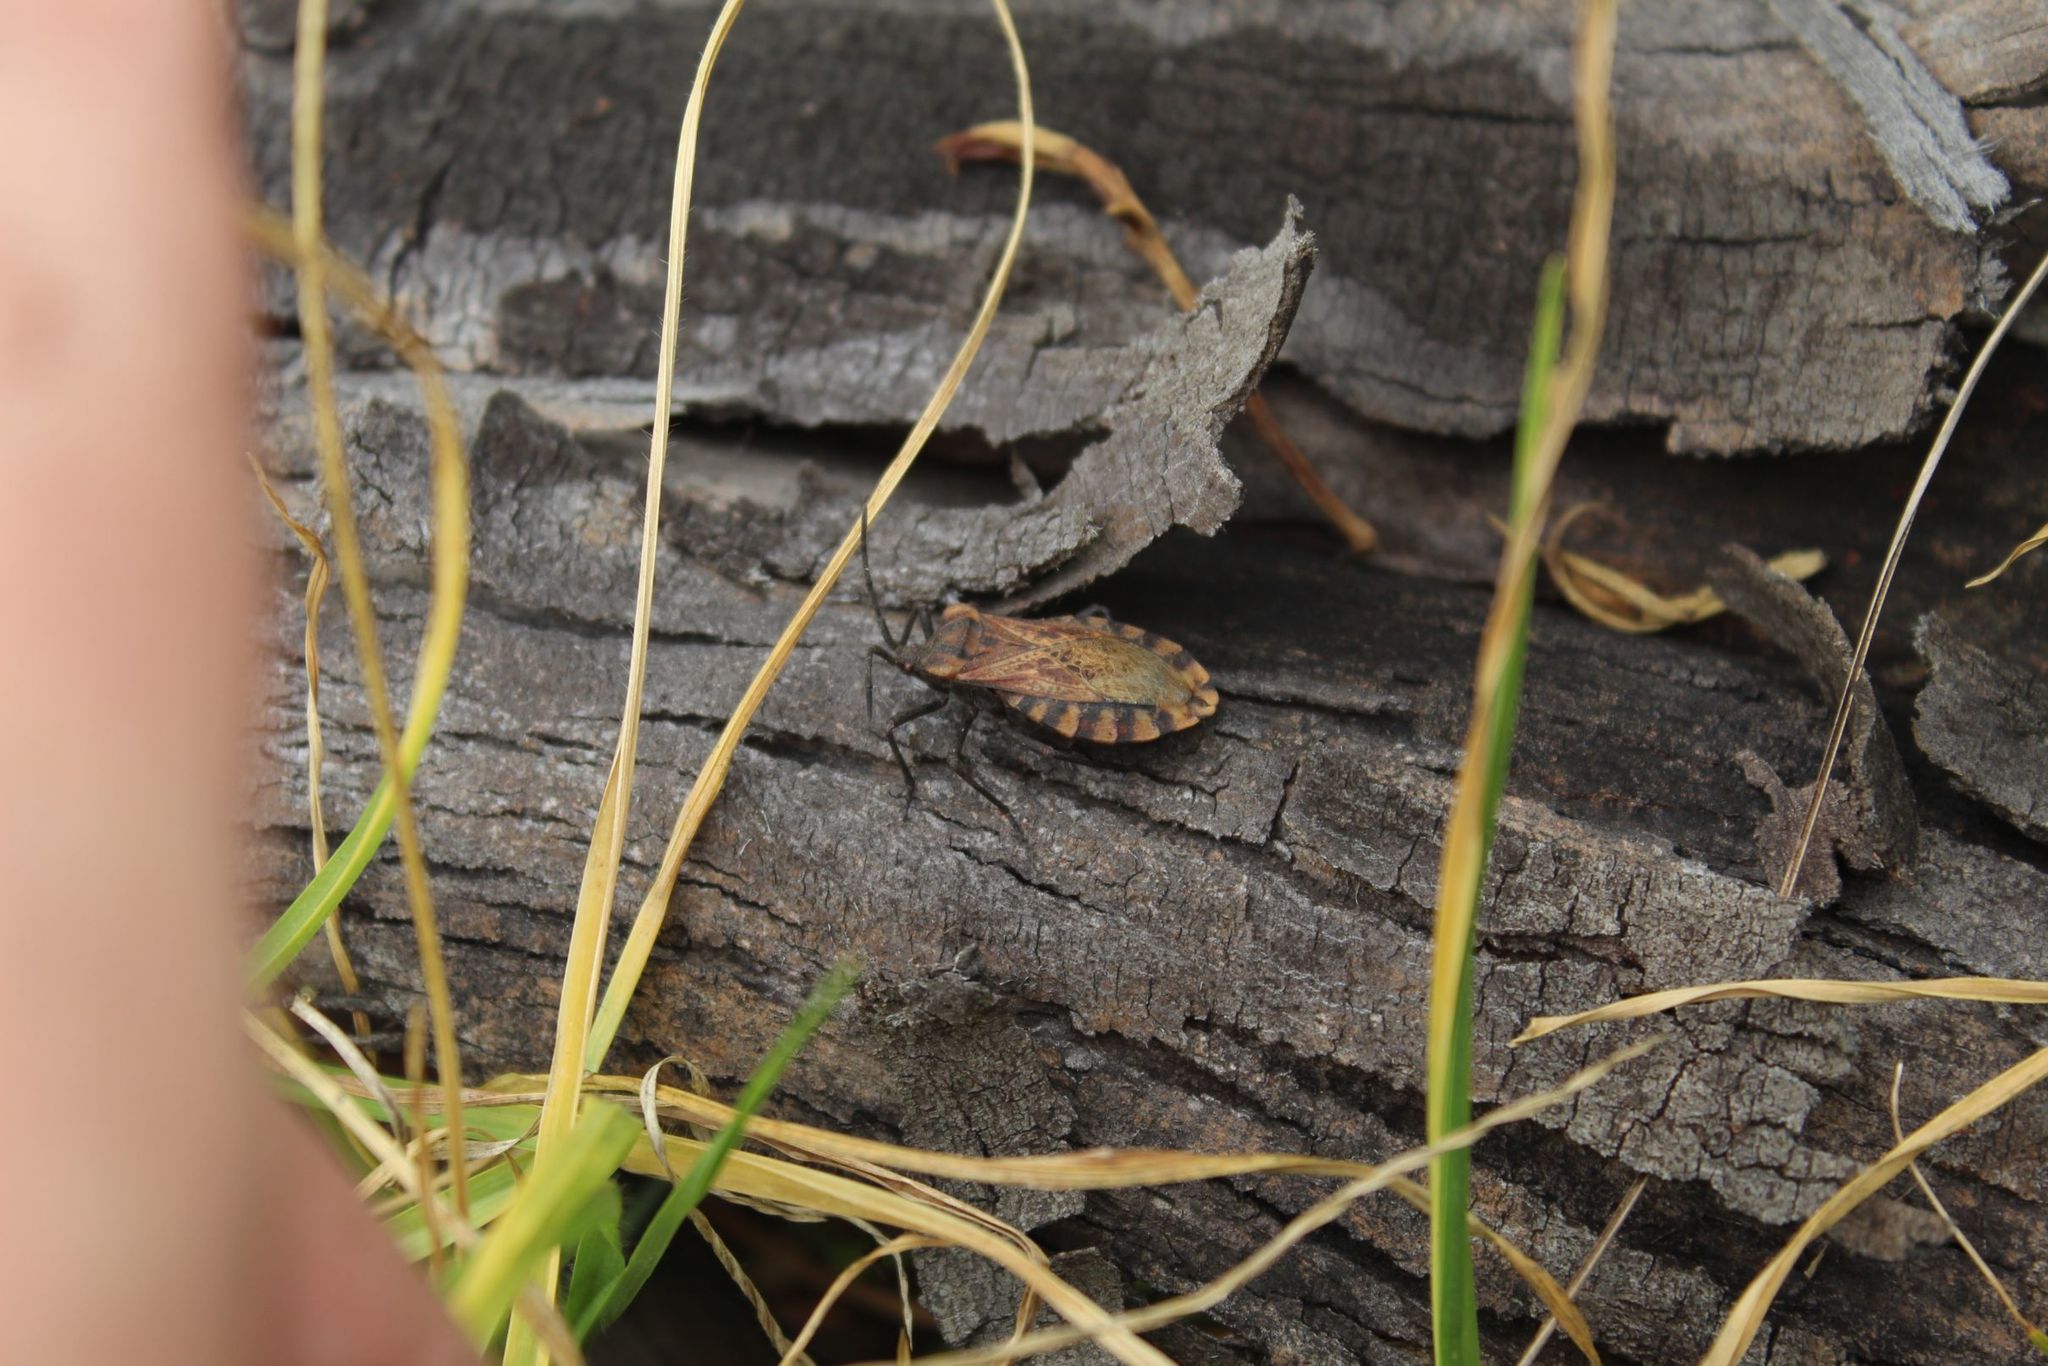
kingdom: Animalia
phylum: Arthropoda
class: Insecta
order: Hemiptera
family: Coreidae
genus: Spartocera
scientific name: Spartocera fusca
